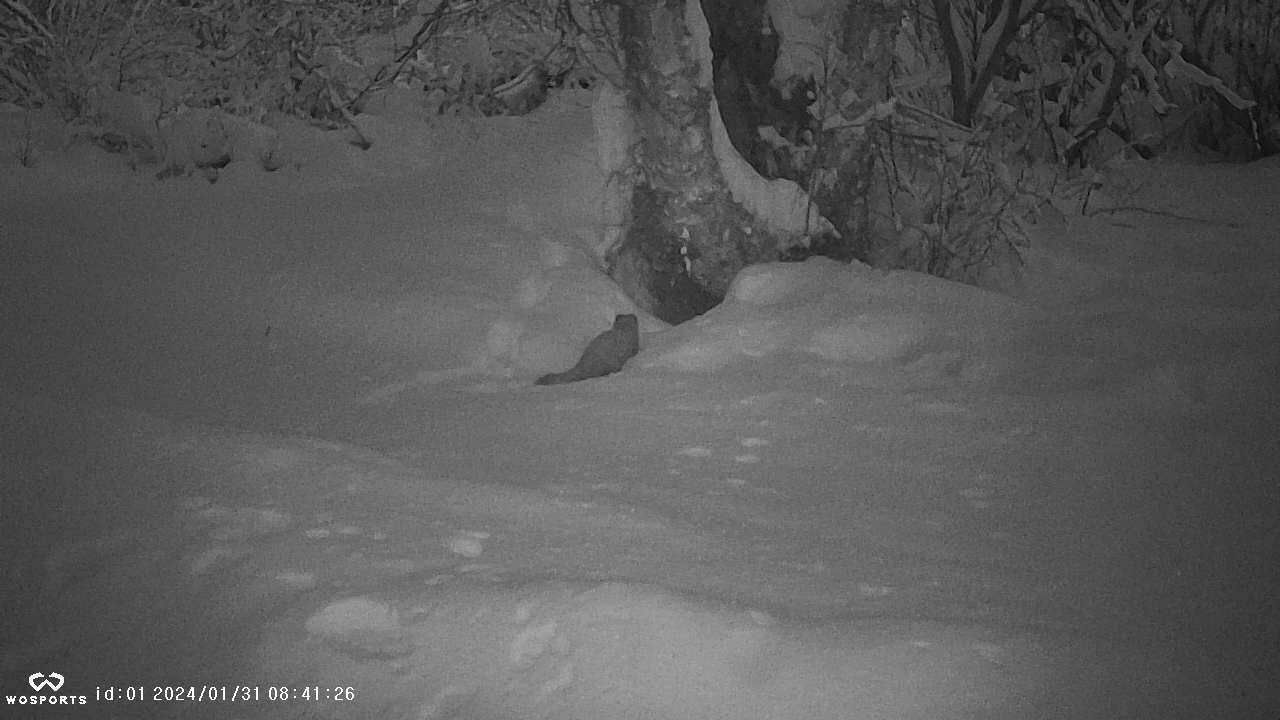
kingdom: Animalia
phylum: Chordata
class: Mammalia
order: Carnivora
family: Mustelidae
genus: Martes
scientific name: Martes americana
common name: American marten
